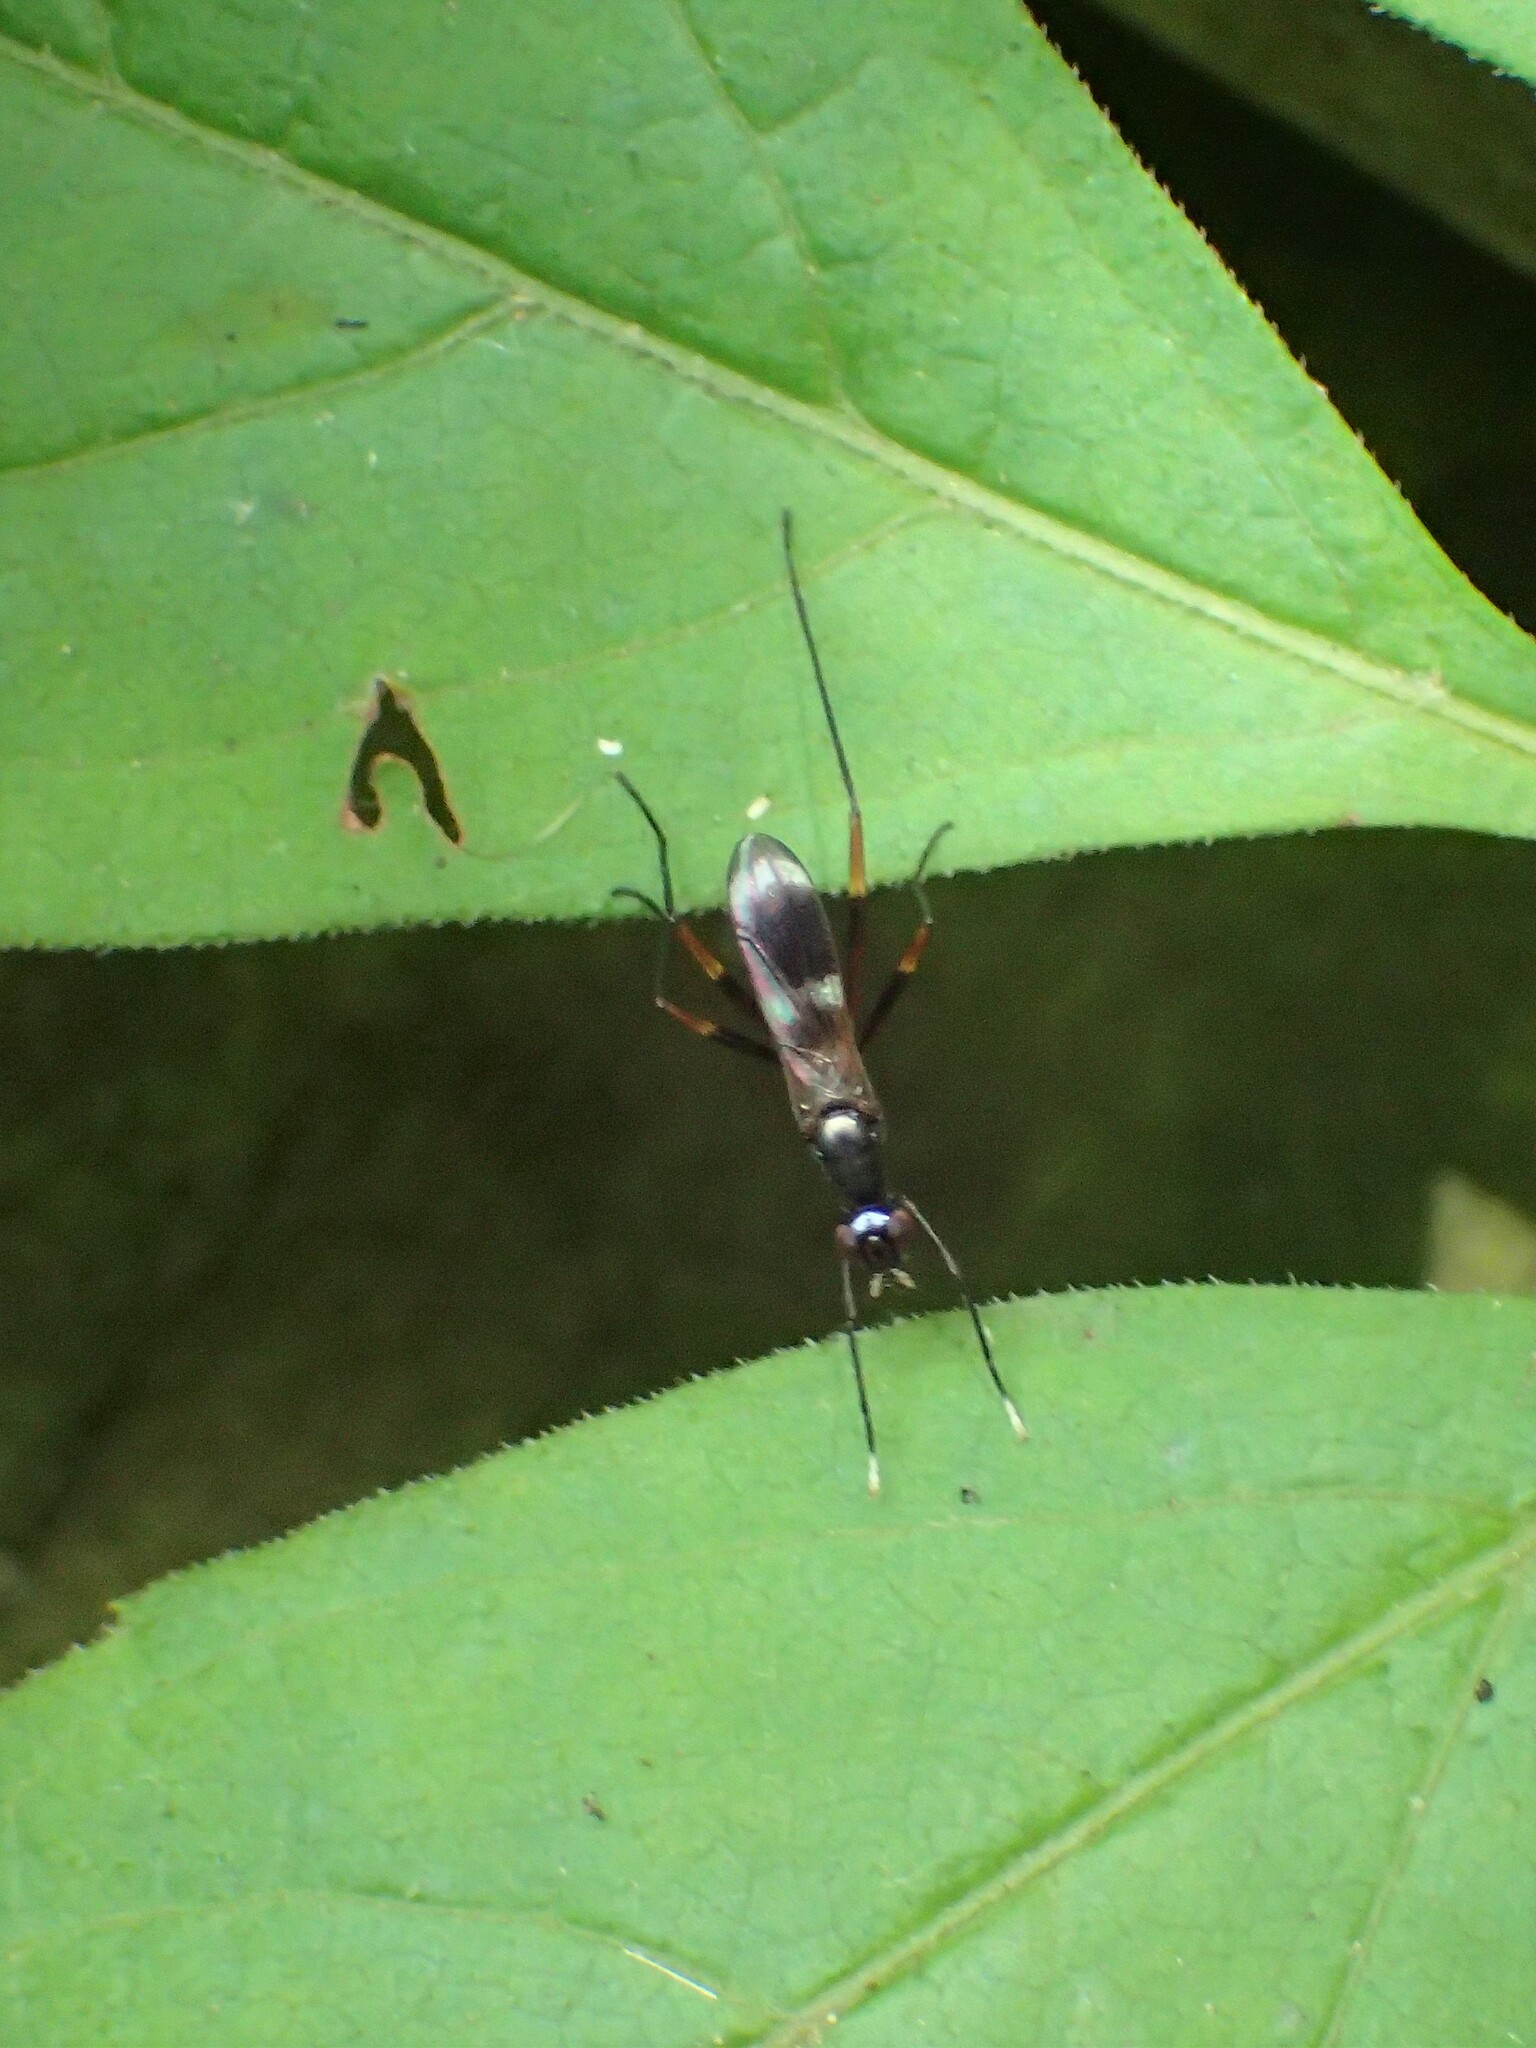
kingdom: Animalia
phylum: Arthropoda
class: Insecta
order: Diptera
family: Micropezidae
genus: Taeniaptera
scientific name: Taeniaptera trivittata
